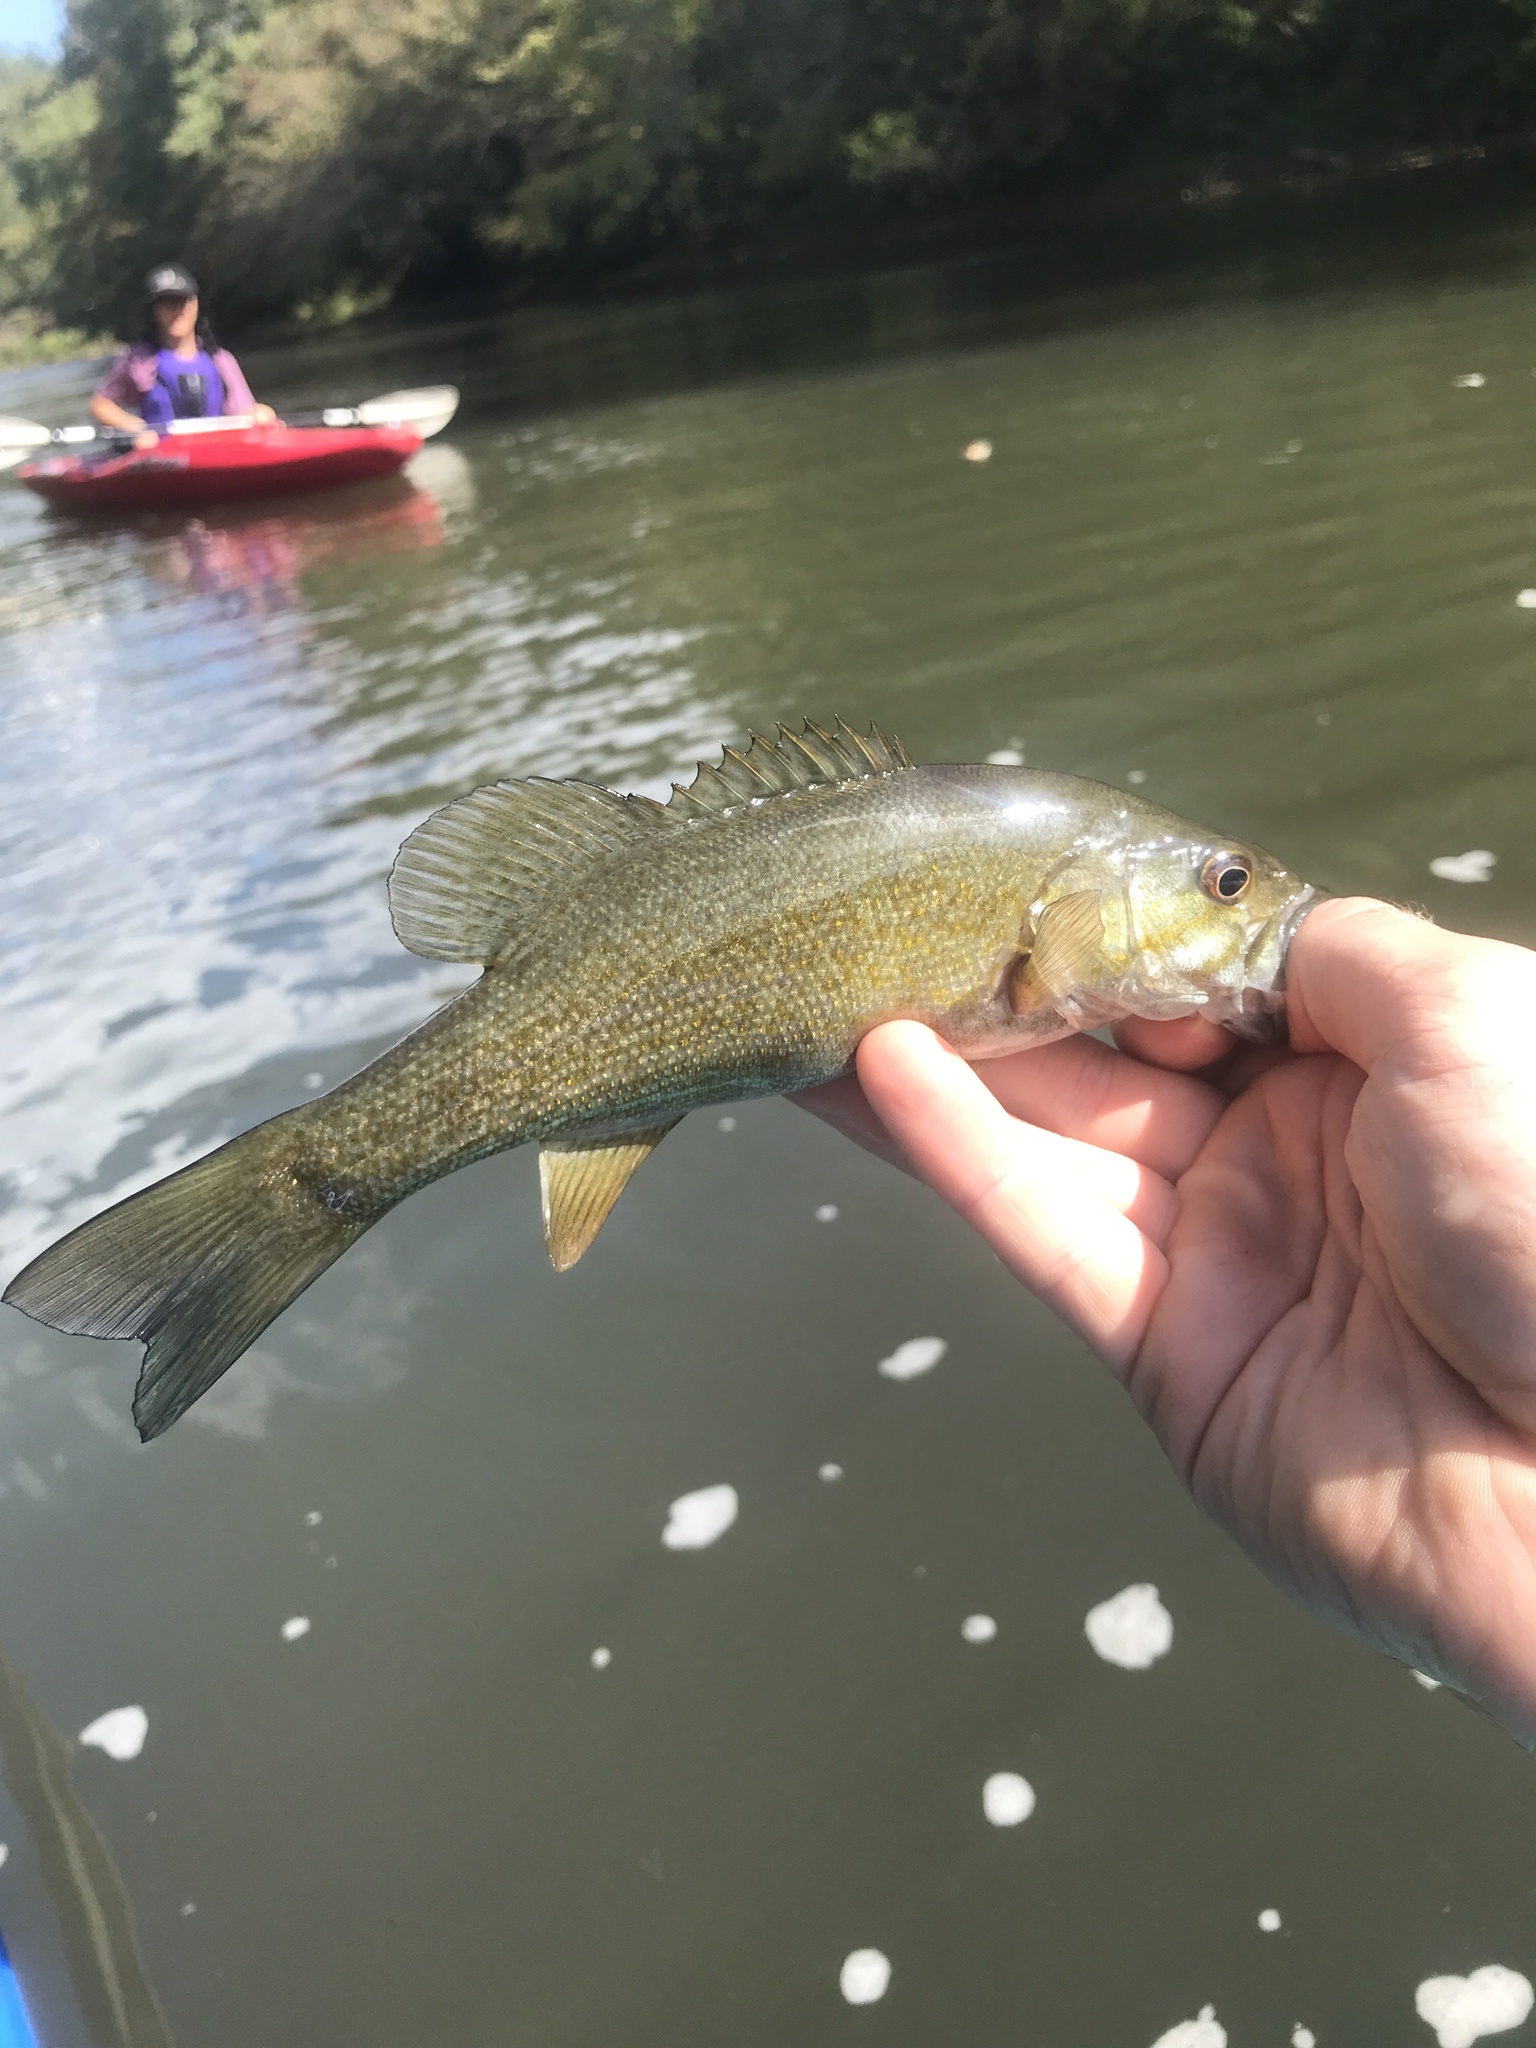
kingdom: Animalia
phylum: Chordata
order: Perciformes
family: Centrarchidae
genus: Micropterus
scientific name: Micropterus dolomieu
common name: Smallmouth bass
